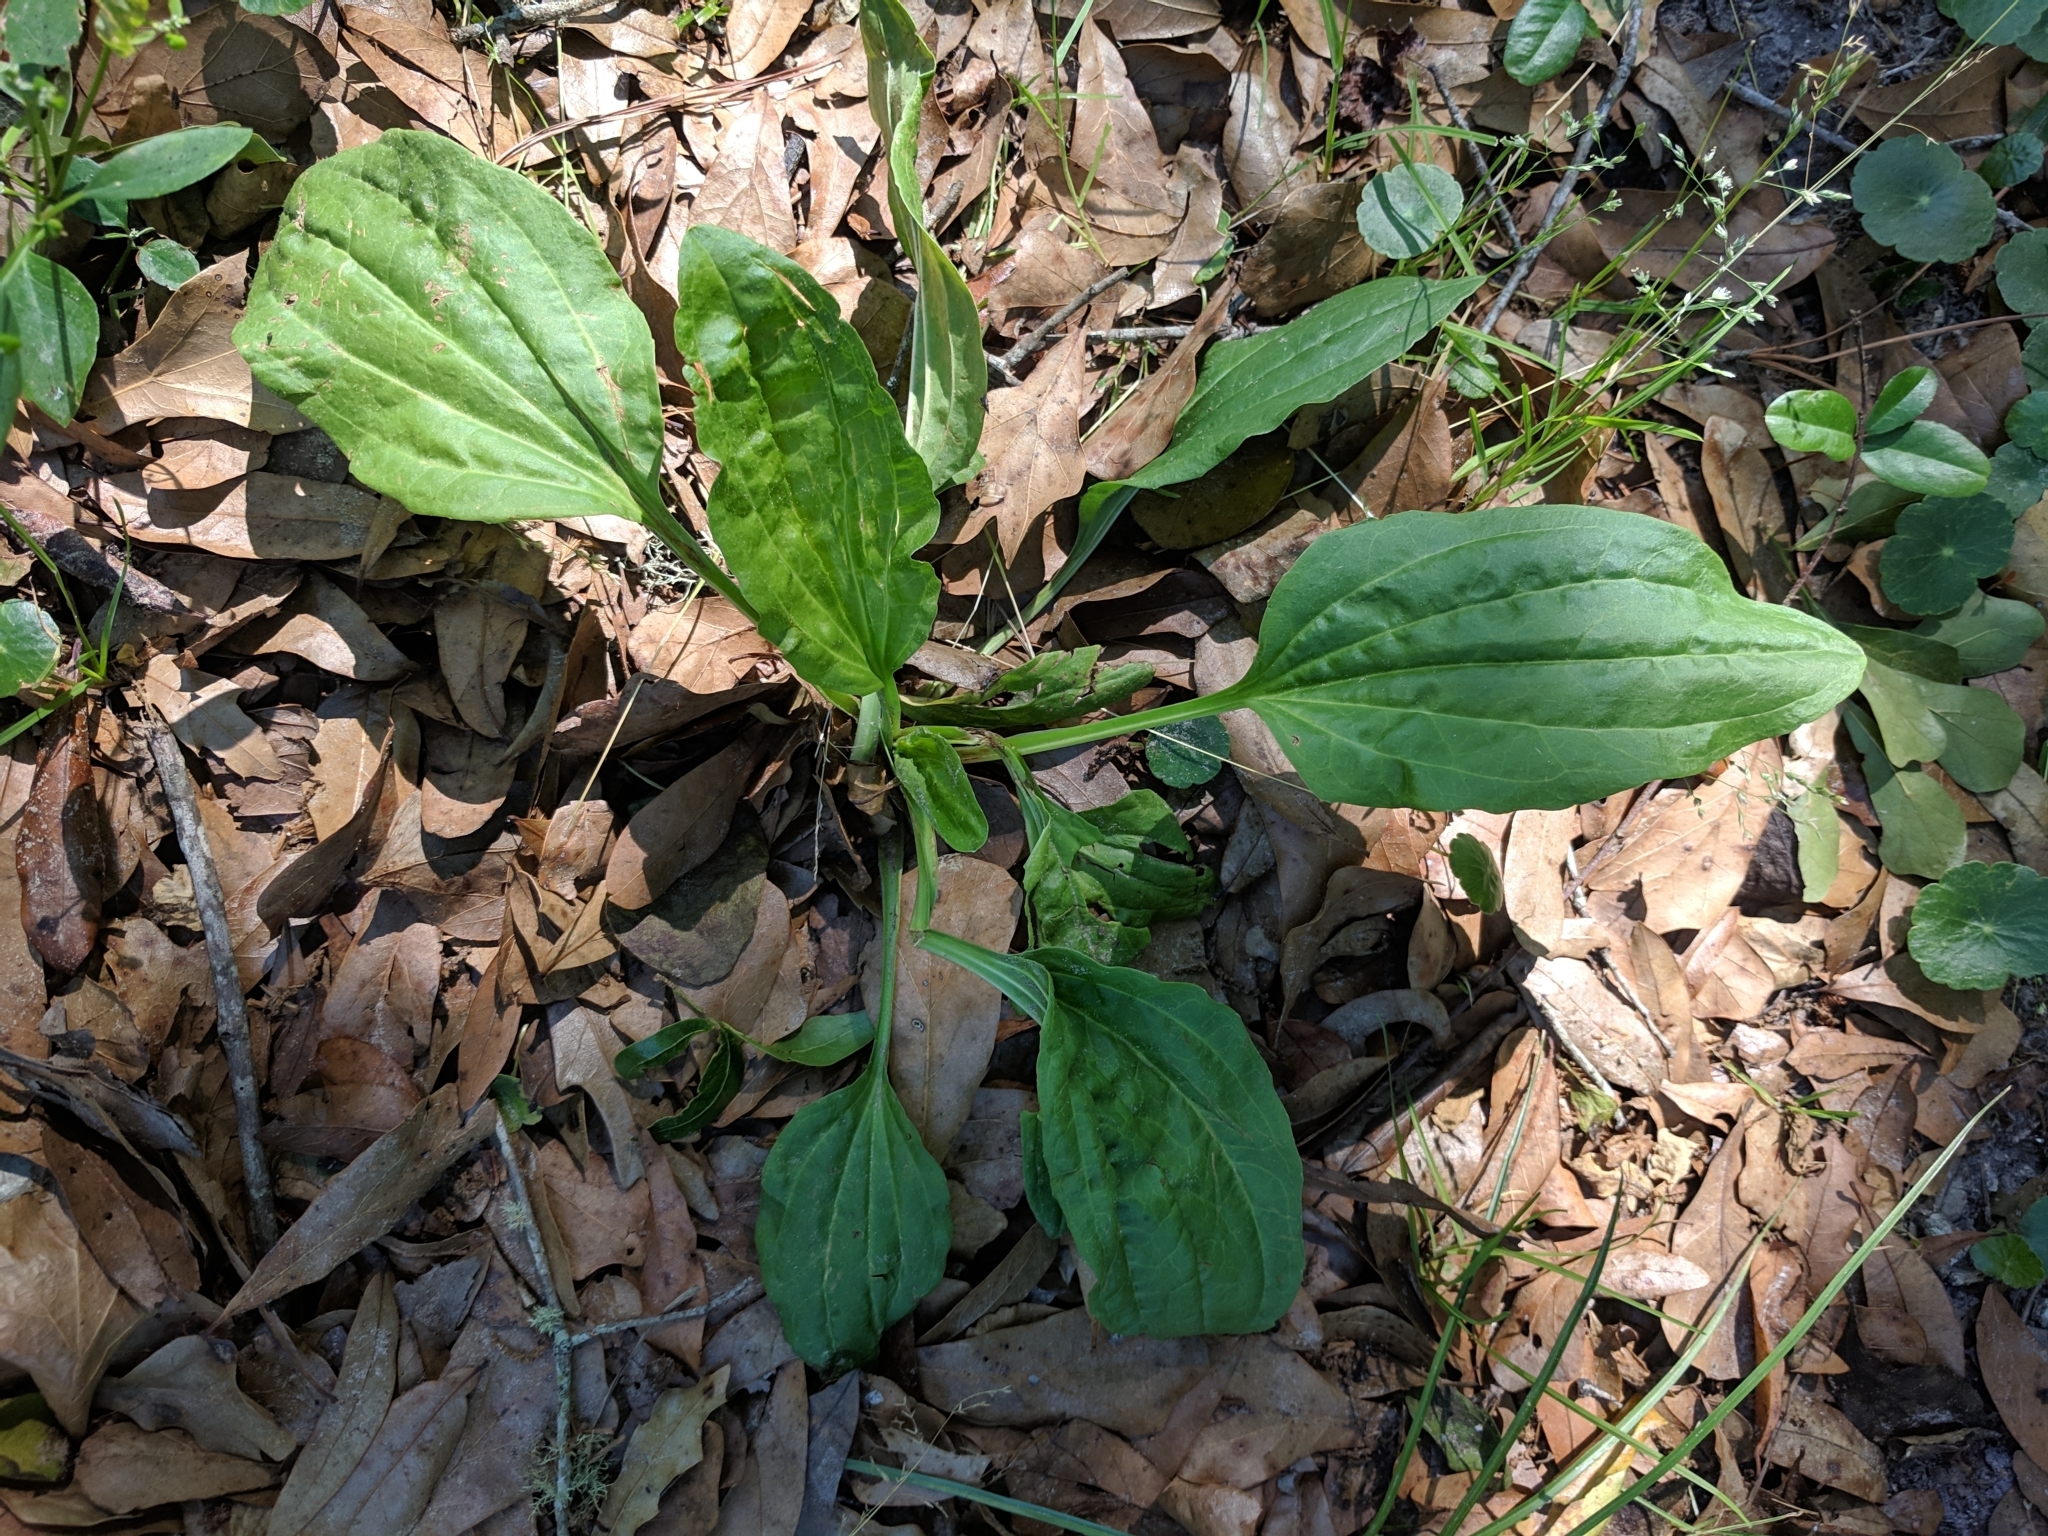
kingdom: Plantae
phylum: Tracheophyta
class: Magnoliopsida
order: Lamiales
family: Plantaginaceae
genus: Plantago
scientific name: Plantago major
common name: Common plantain
